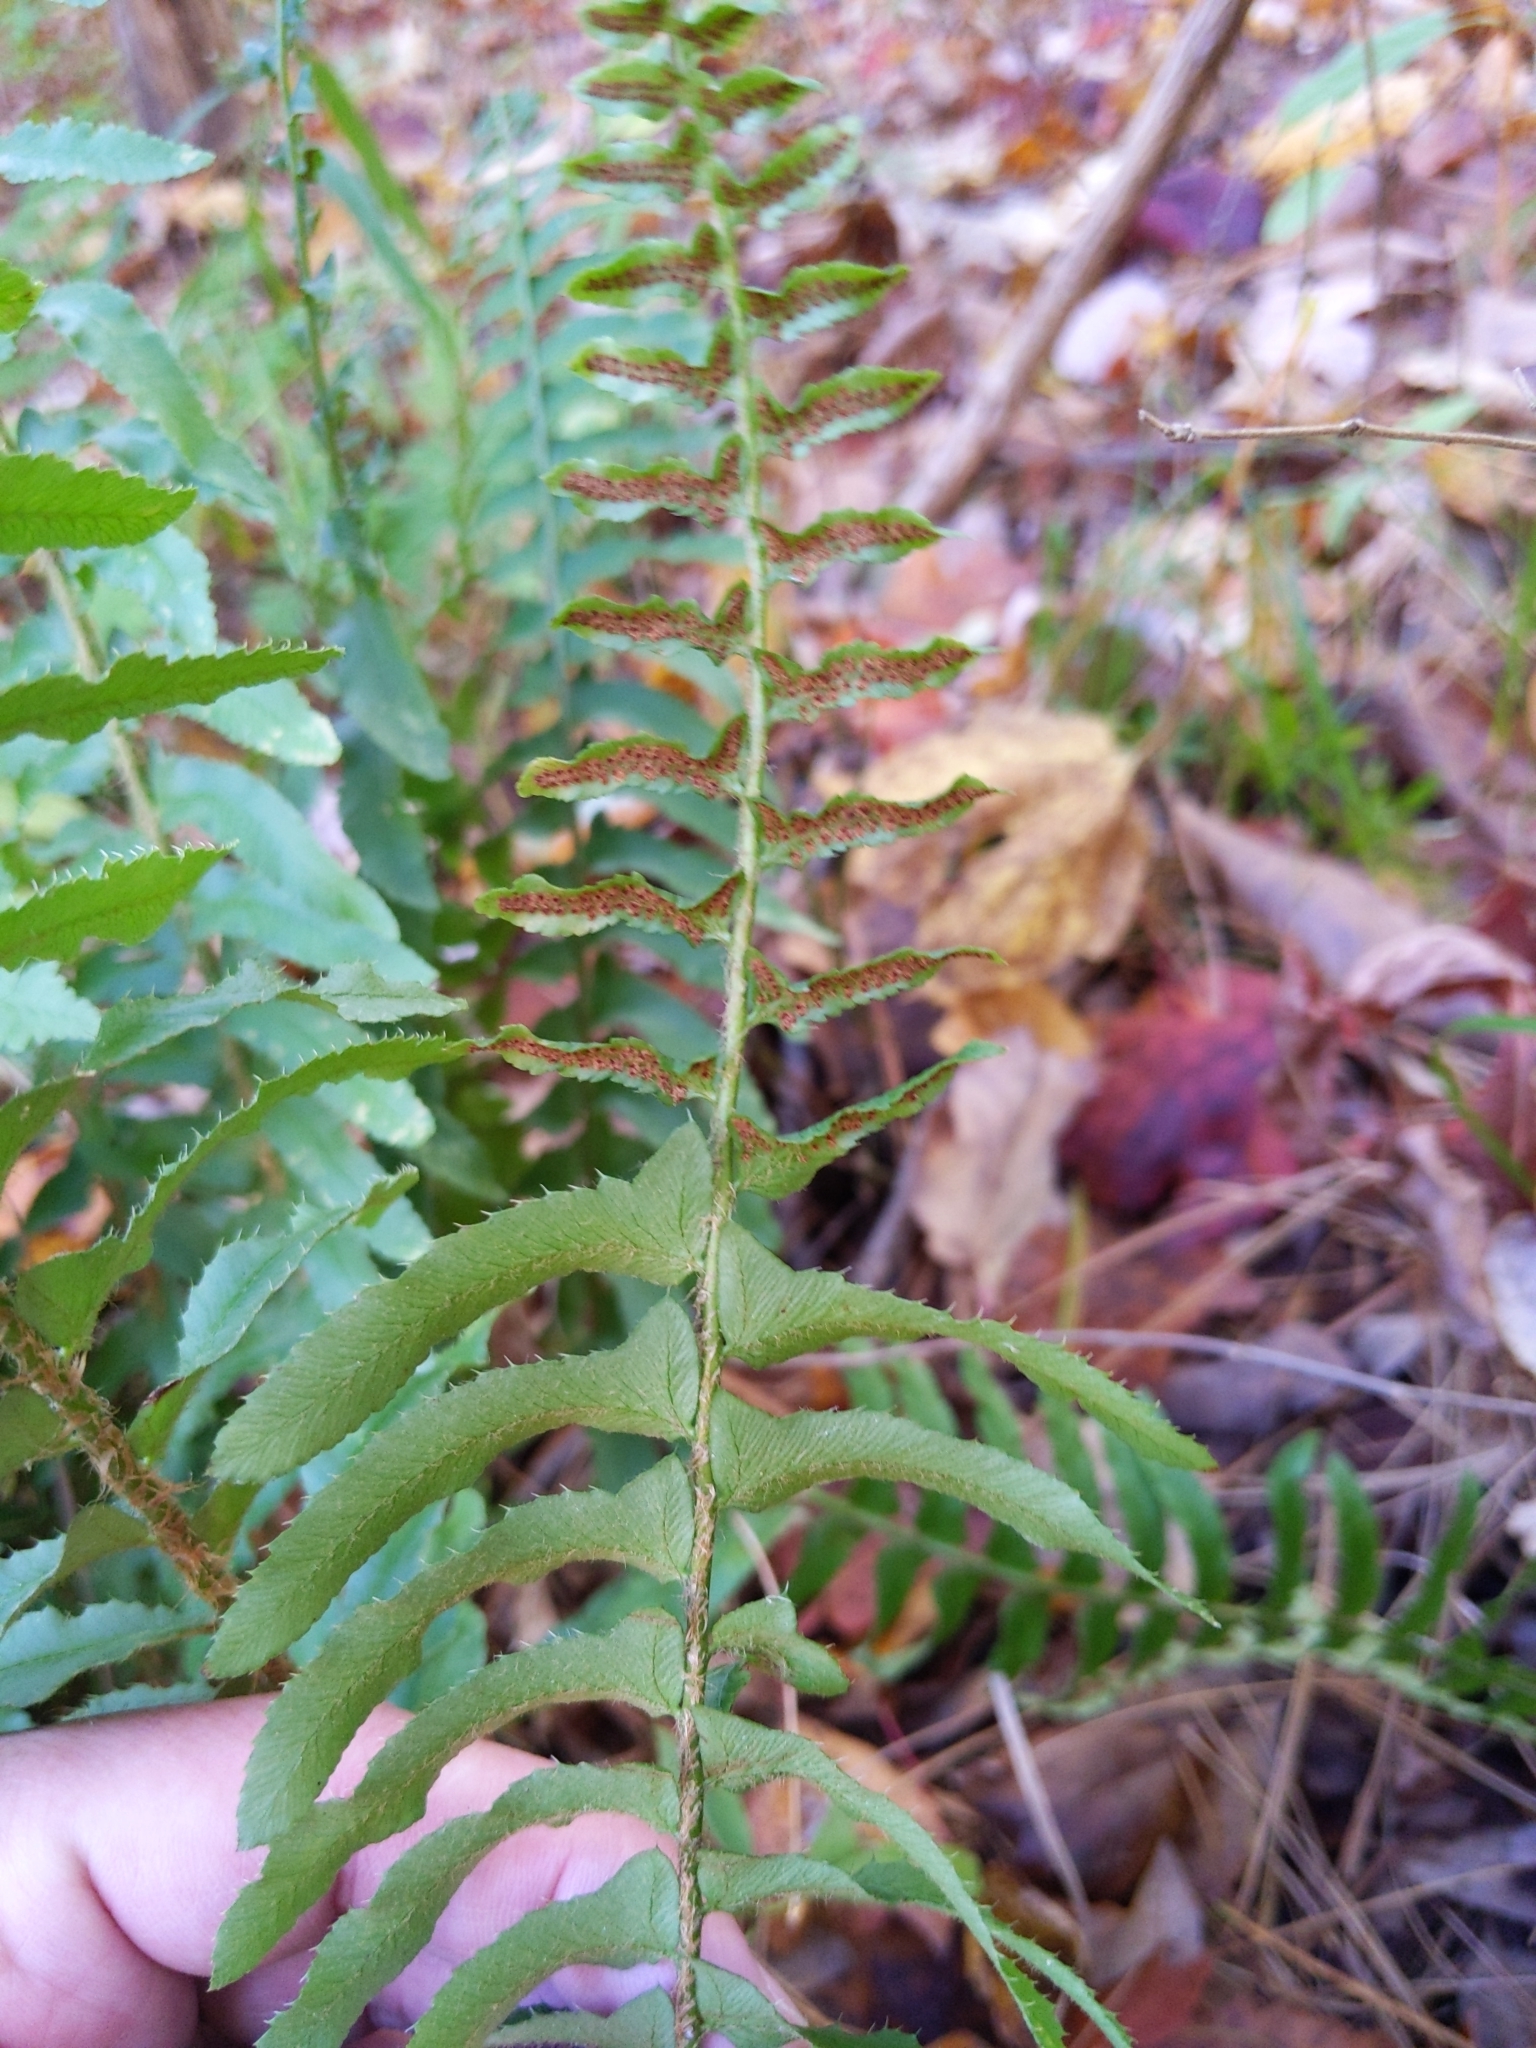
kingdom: Plantae
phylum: Tracheophyta
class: Polypodiopsida
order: Polypodiales
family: Dryopteridaceae
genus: Polystichum
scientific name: Polystichum acrostichoides
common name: Christmas fern
